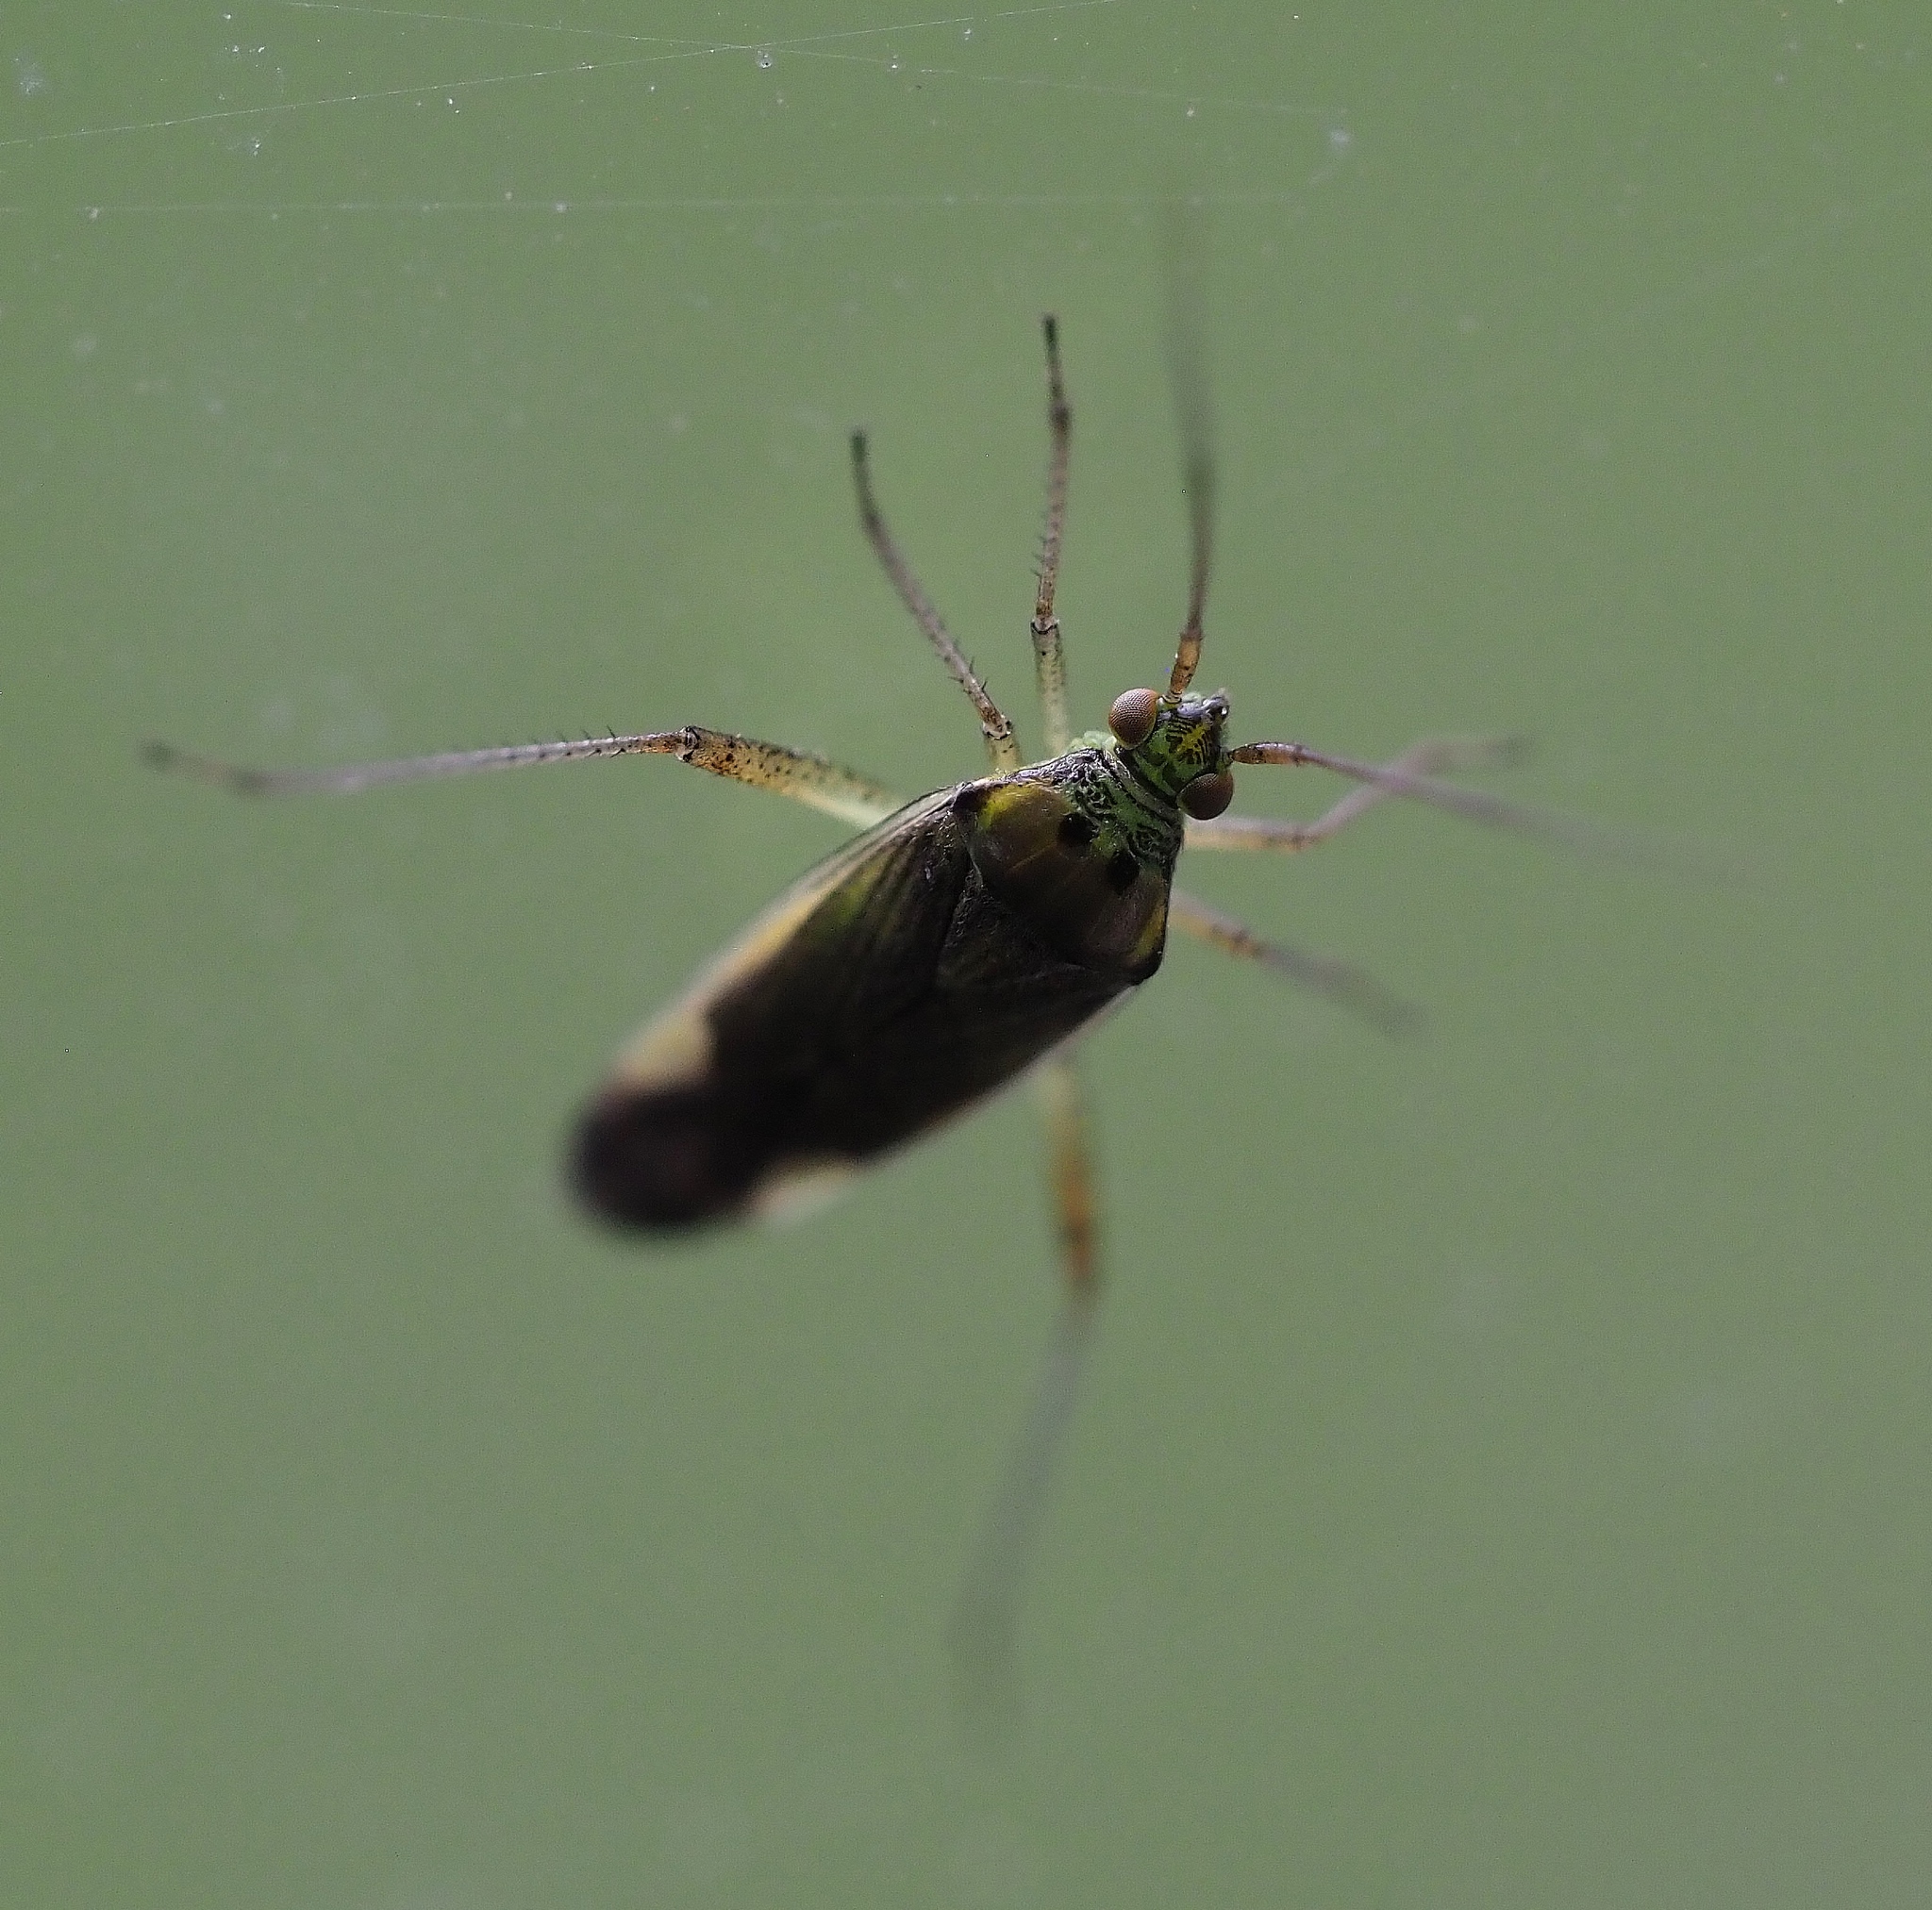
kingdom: Animalia
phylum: Arthropoda
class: Insecta
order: Hemiptera
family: Miridae
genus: Closterotomus
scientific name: Closterotomus trivialis
